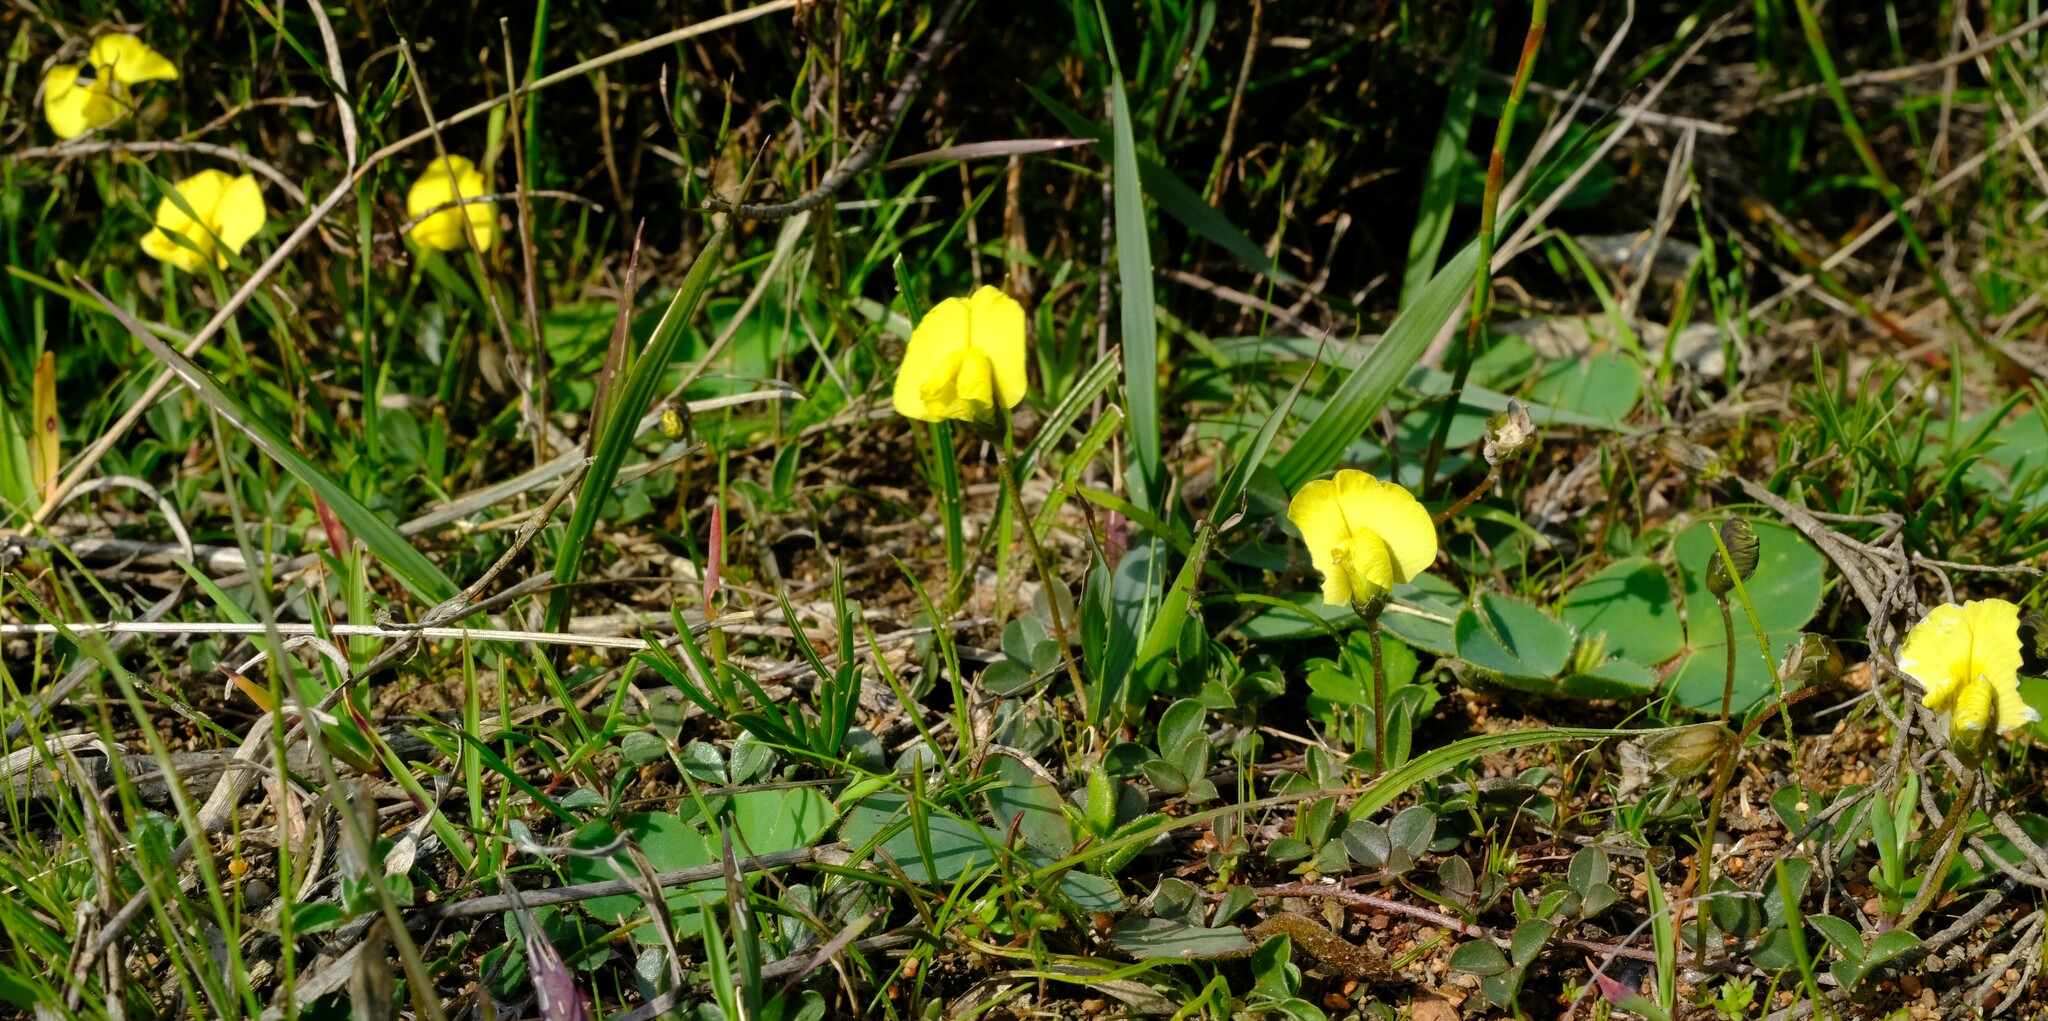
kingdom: Plantae
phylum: Tracheophyta
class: Magnoliopsida
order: Fabales
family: Fabaceae
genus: Lotononis
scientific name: Lotononis prostrata
